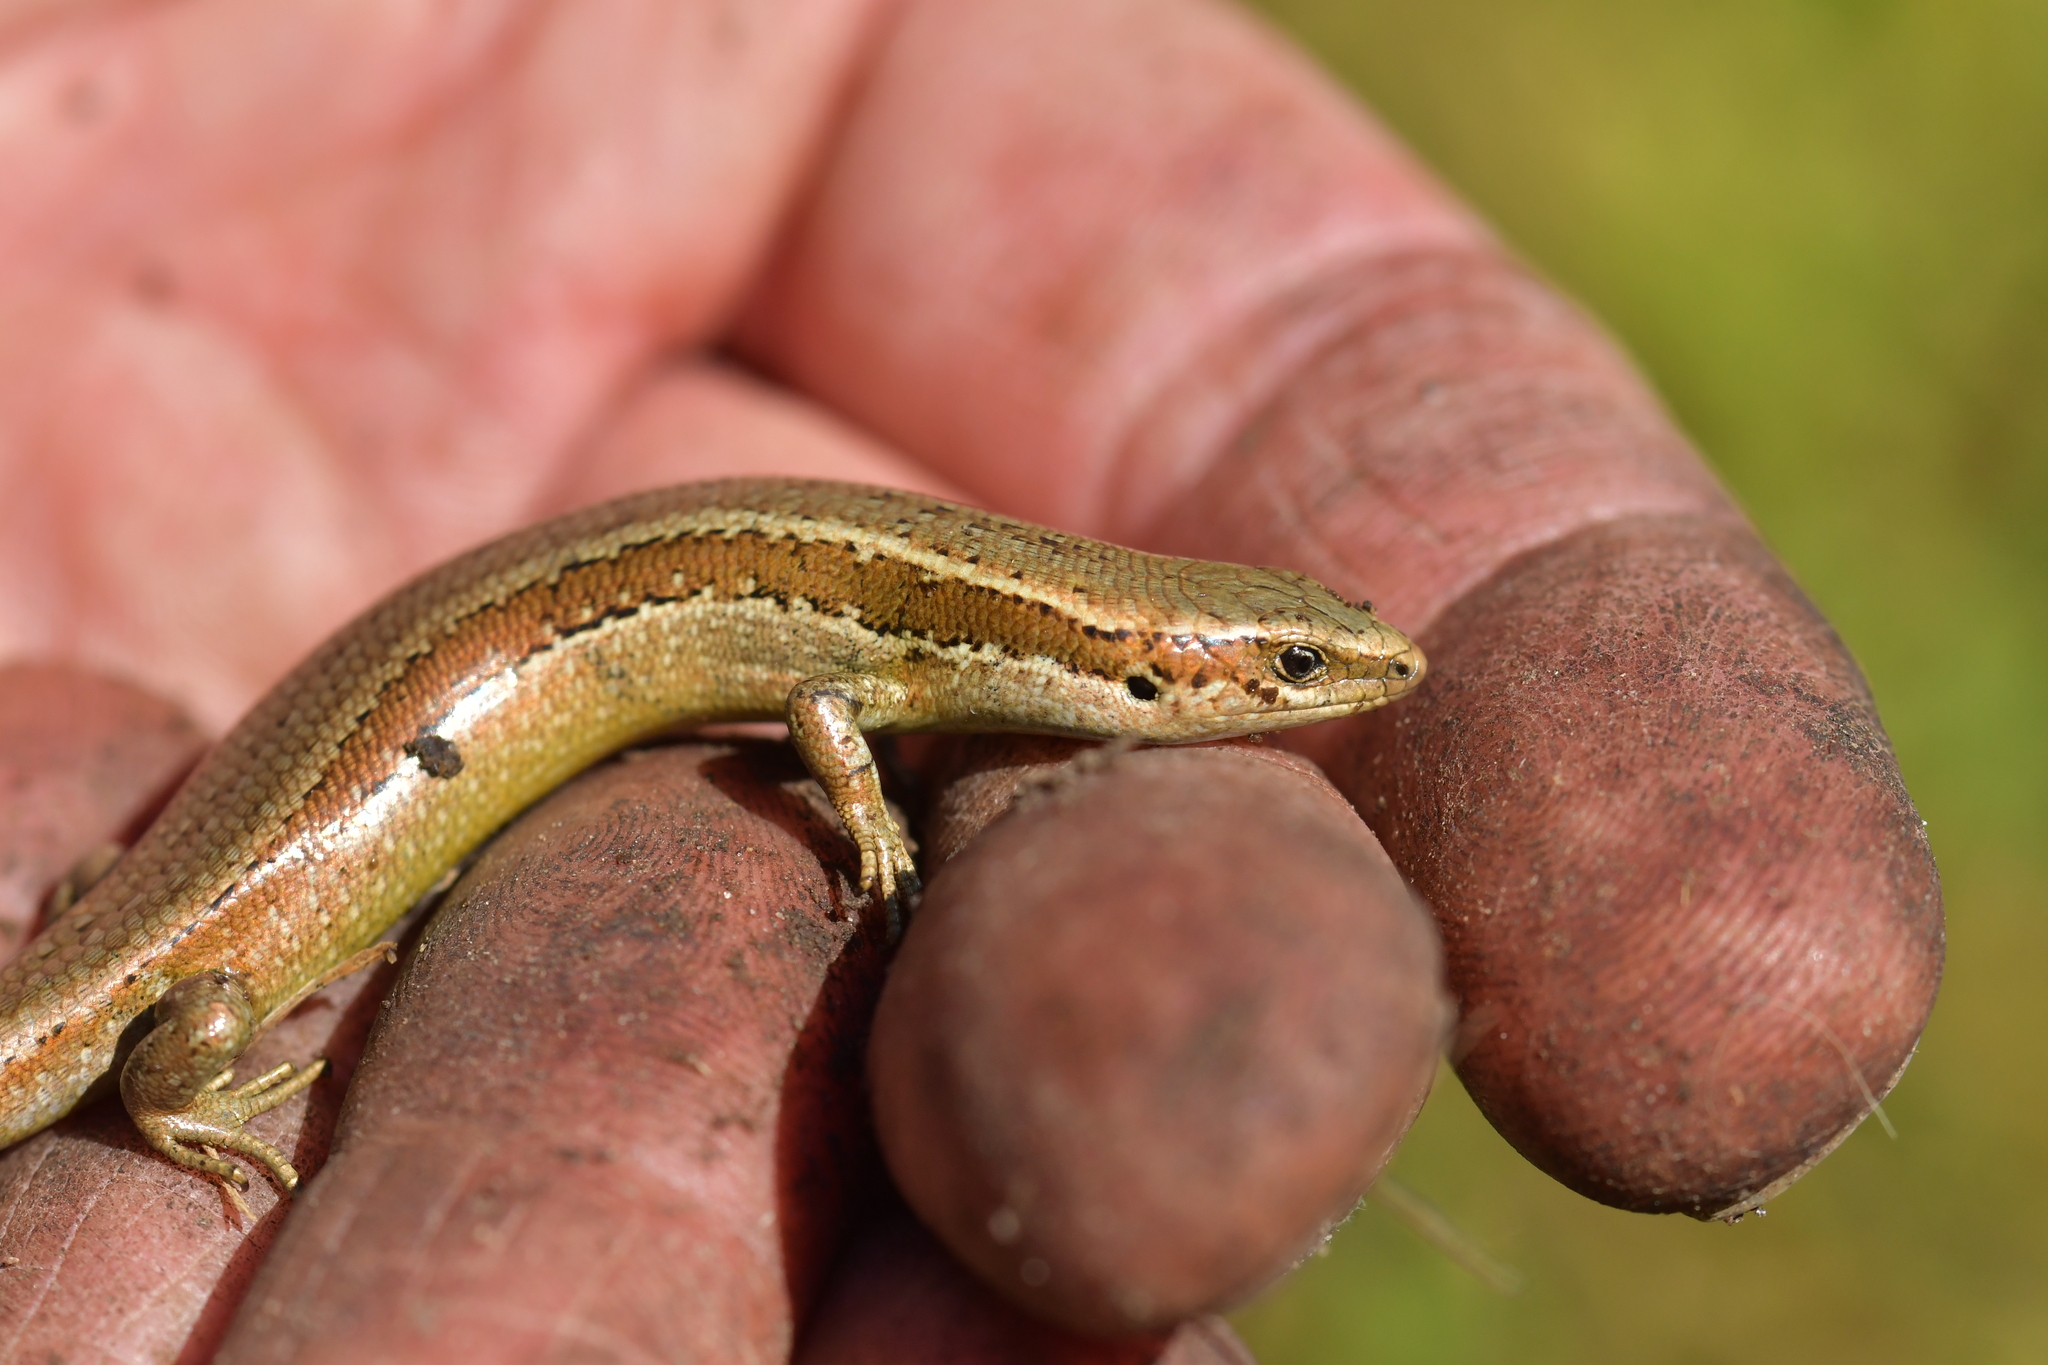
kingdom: Animalia
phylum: Chordata
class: Squamata
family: Scincidae
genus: Oligosoma
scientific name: Oligosoma polychroma
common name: Common new zealand skink
